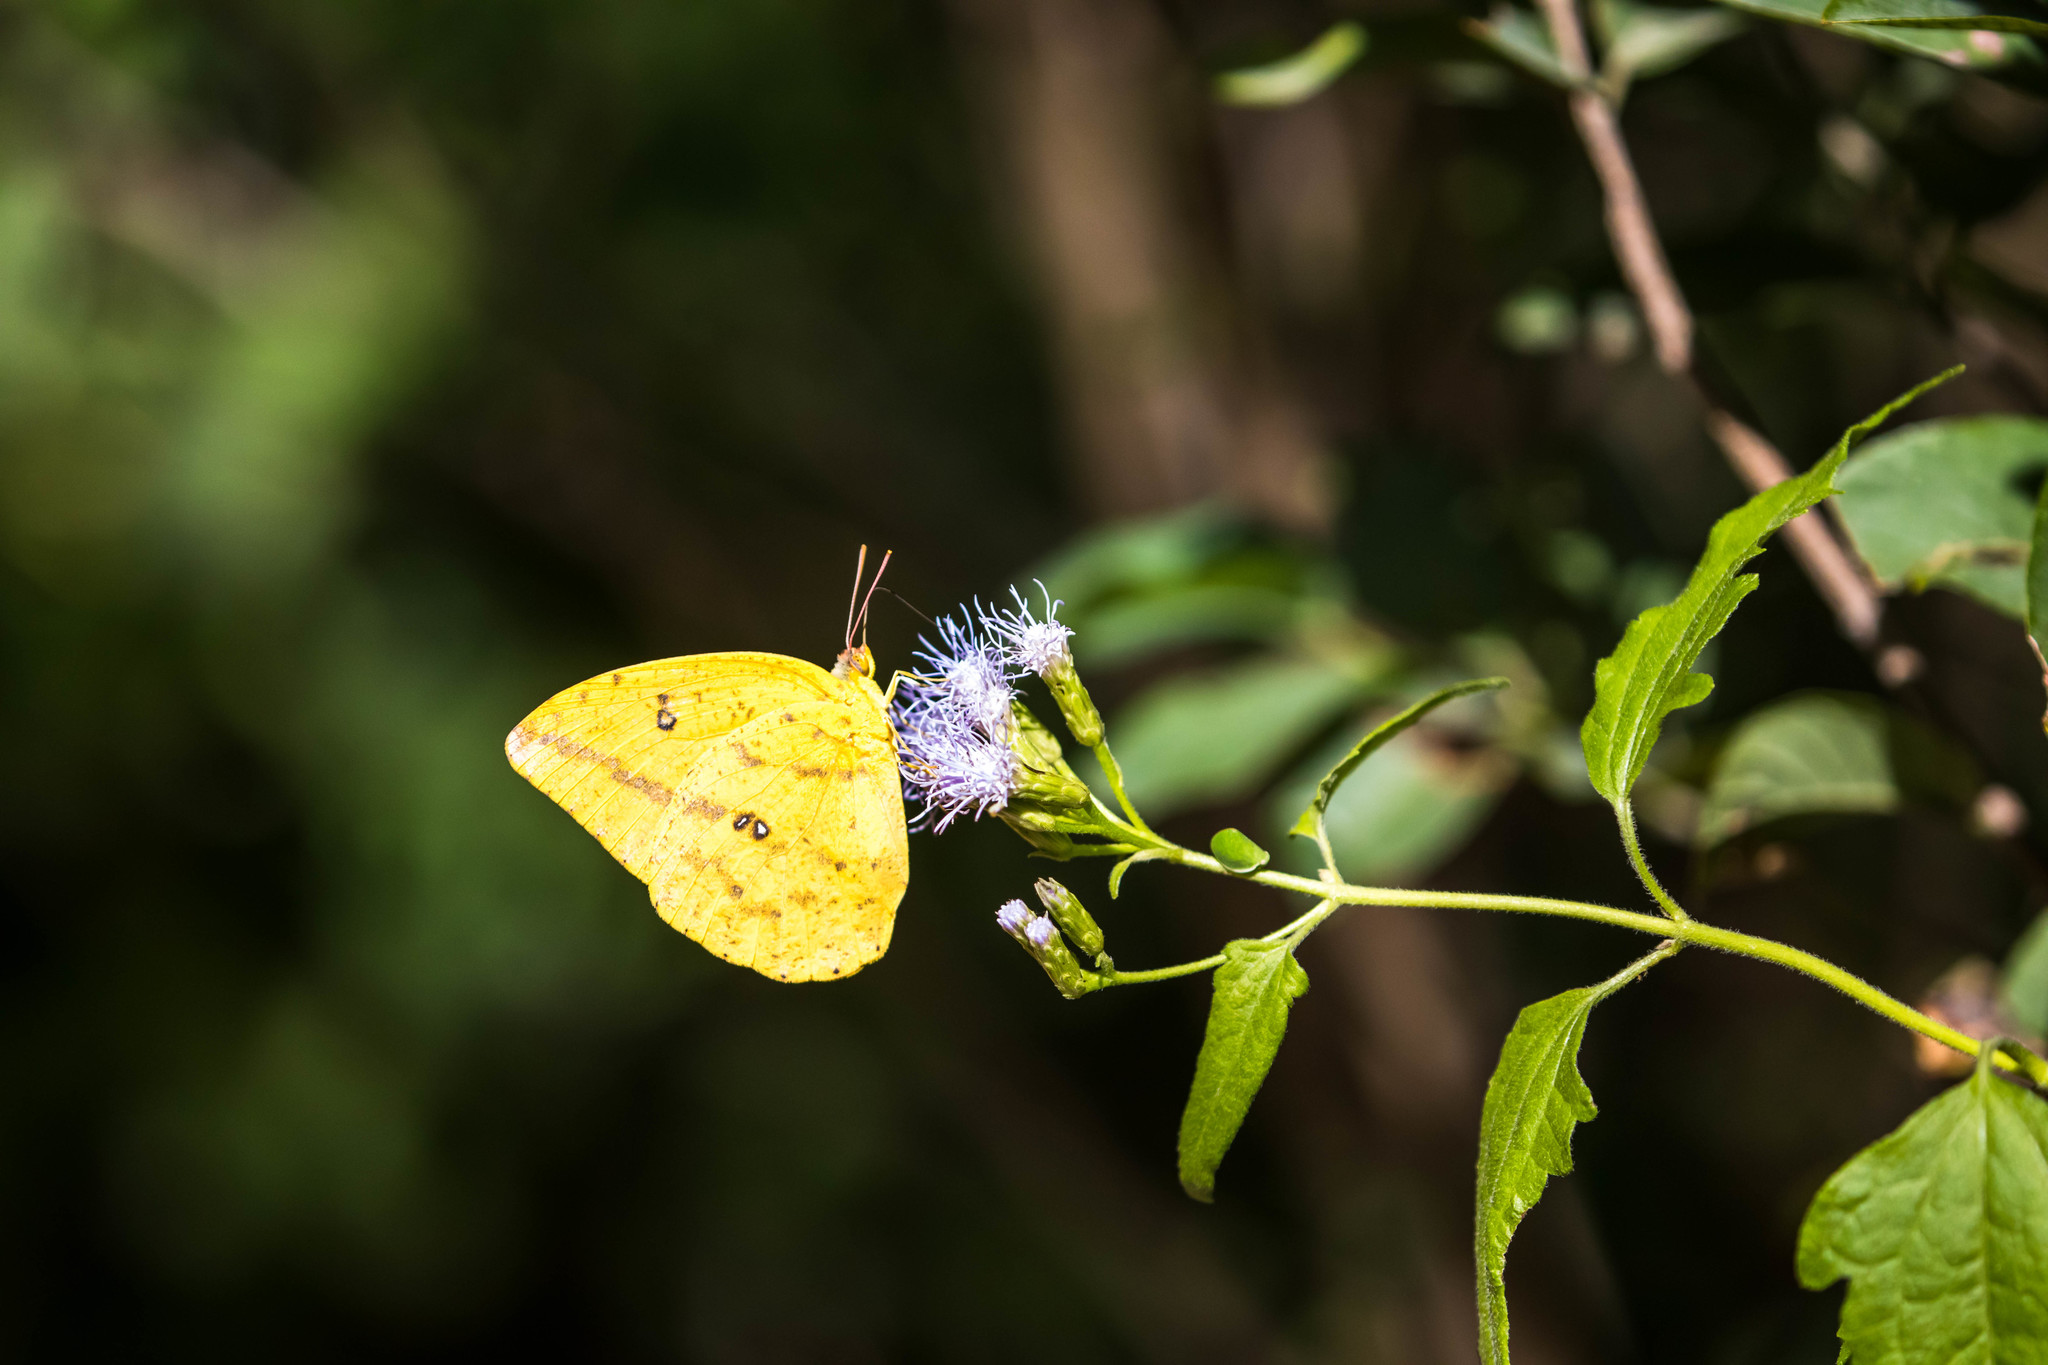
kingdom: Animalia
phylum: Arthropoda
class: Insecta
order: Lepidoptera
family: Pieridae
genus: Phoebis
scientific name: Phoebis agarithe
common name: Large orange sulphur
